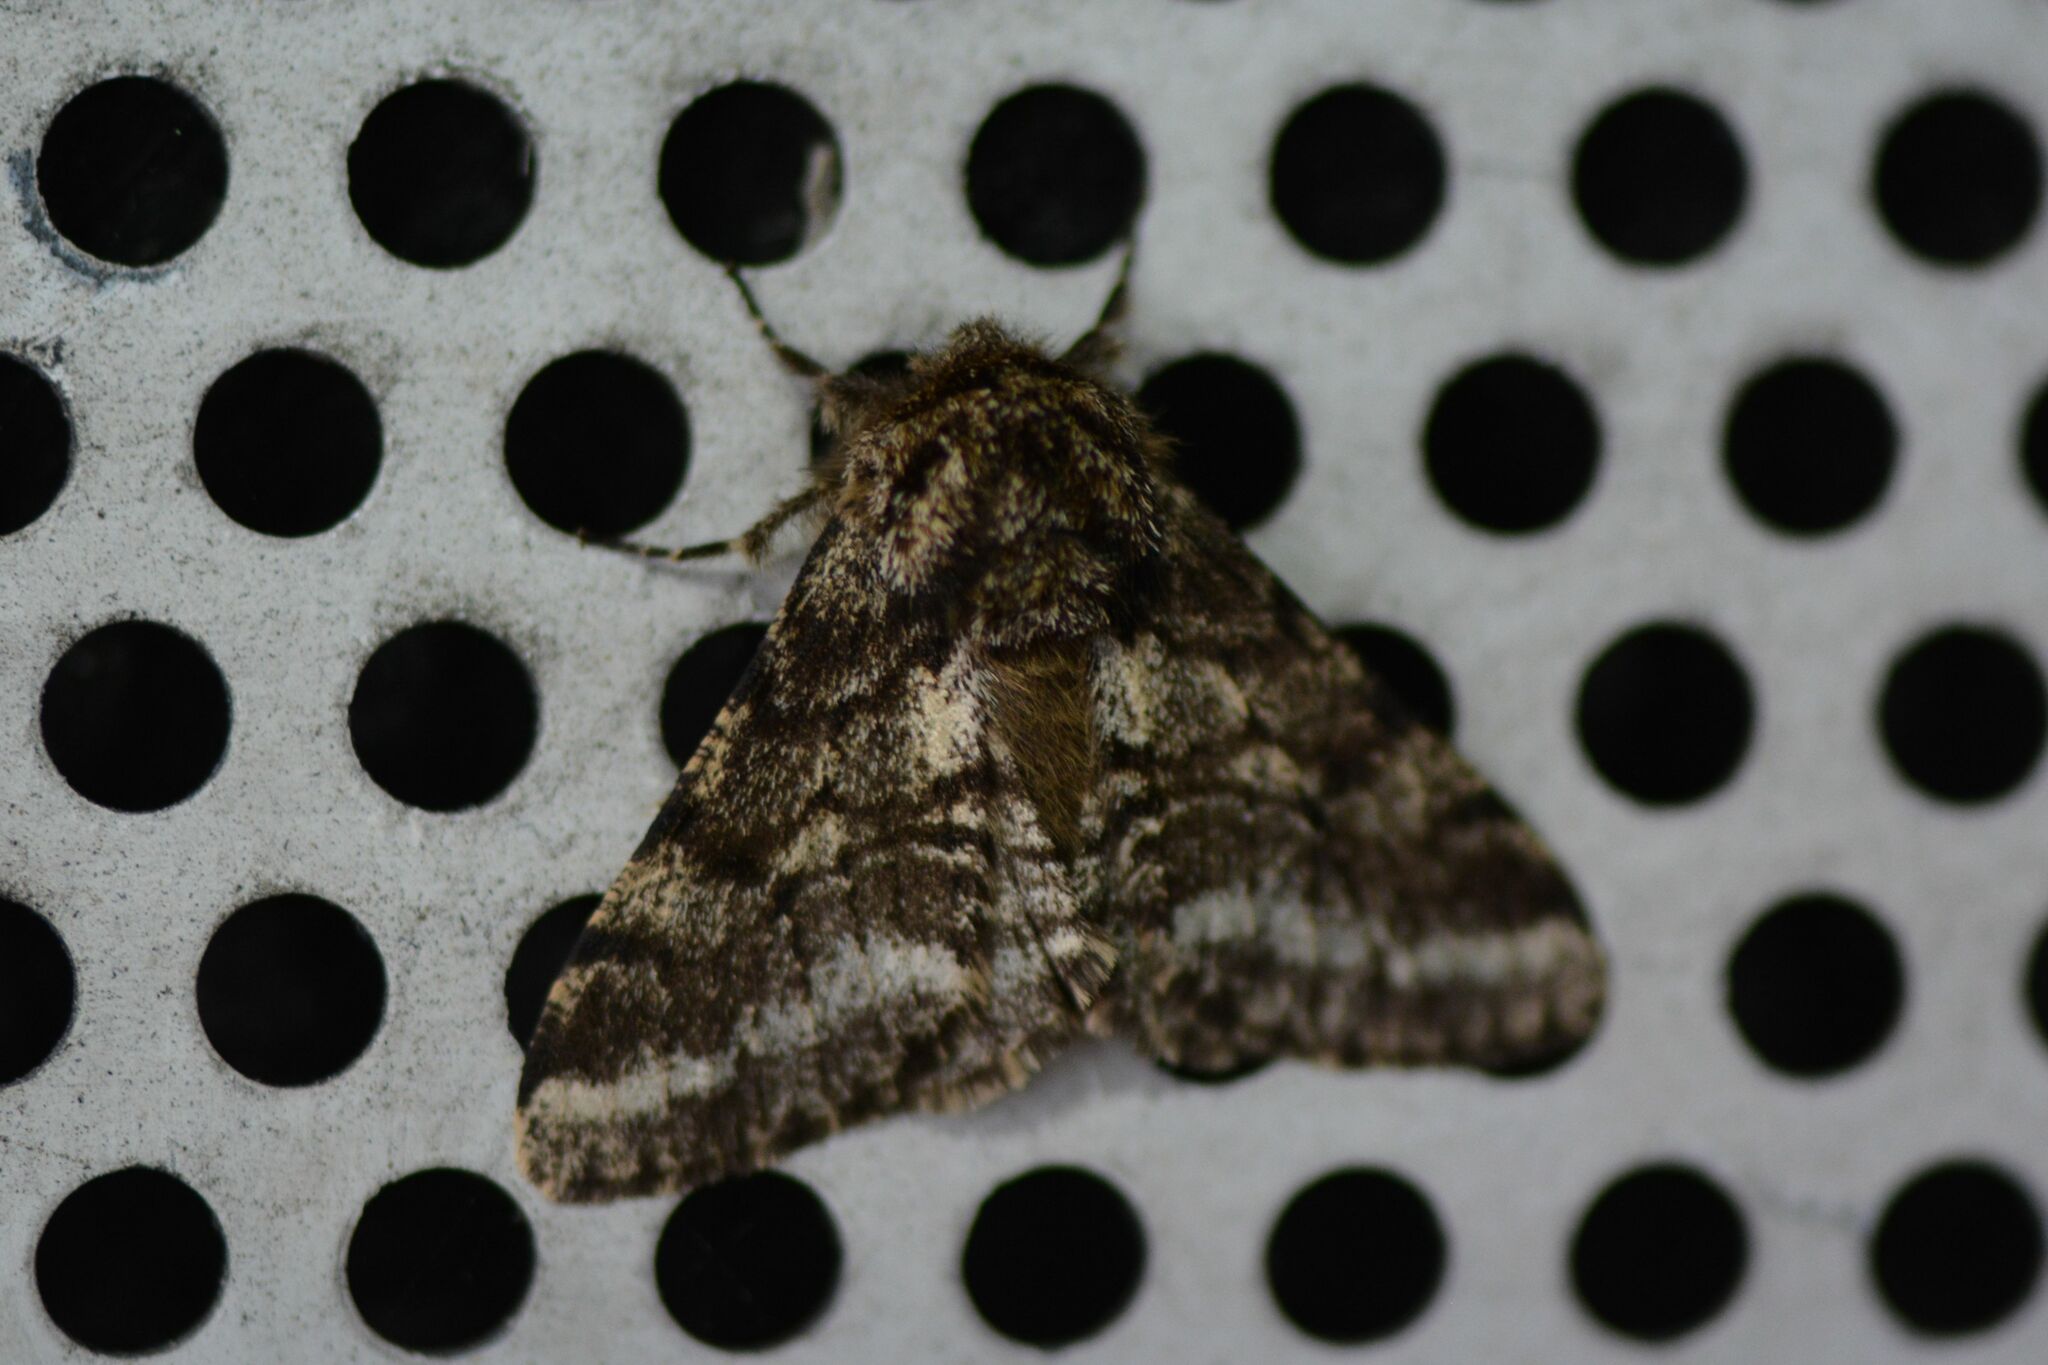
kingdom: Animalia
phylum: Arthropoda
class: Insecta
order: Lepidoptera
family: Geometridae
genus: Lycia
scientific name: Lycia hirtaria
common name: Brindled beauty
